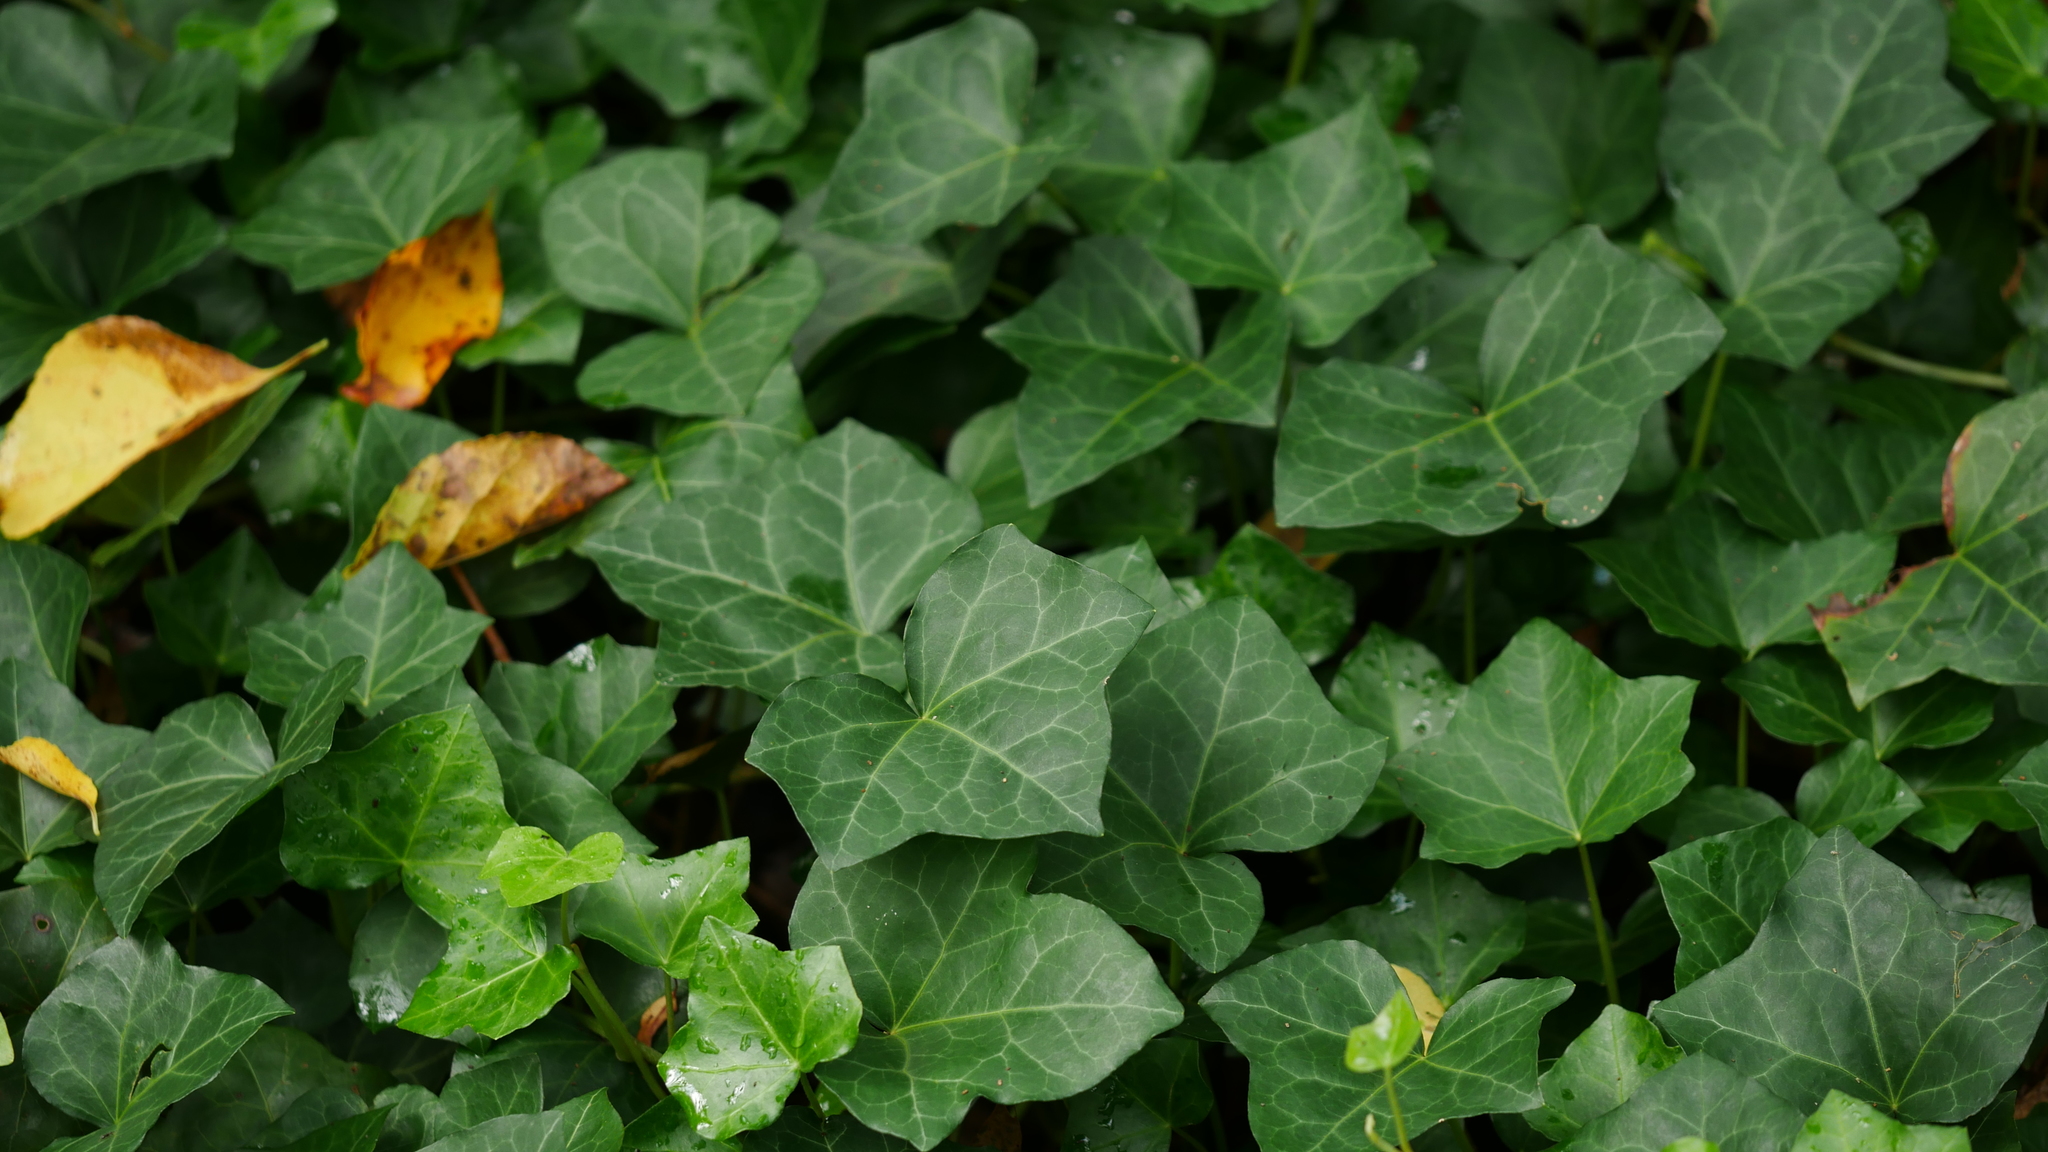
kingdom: Plantae
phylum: Tracheophyta
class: Magnoliopsida
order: Apiales
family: Araliaceae
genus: Hedera
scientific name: Hedera helix
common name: Ivy
